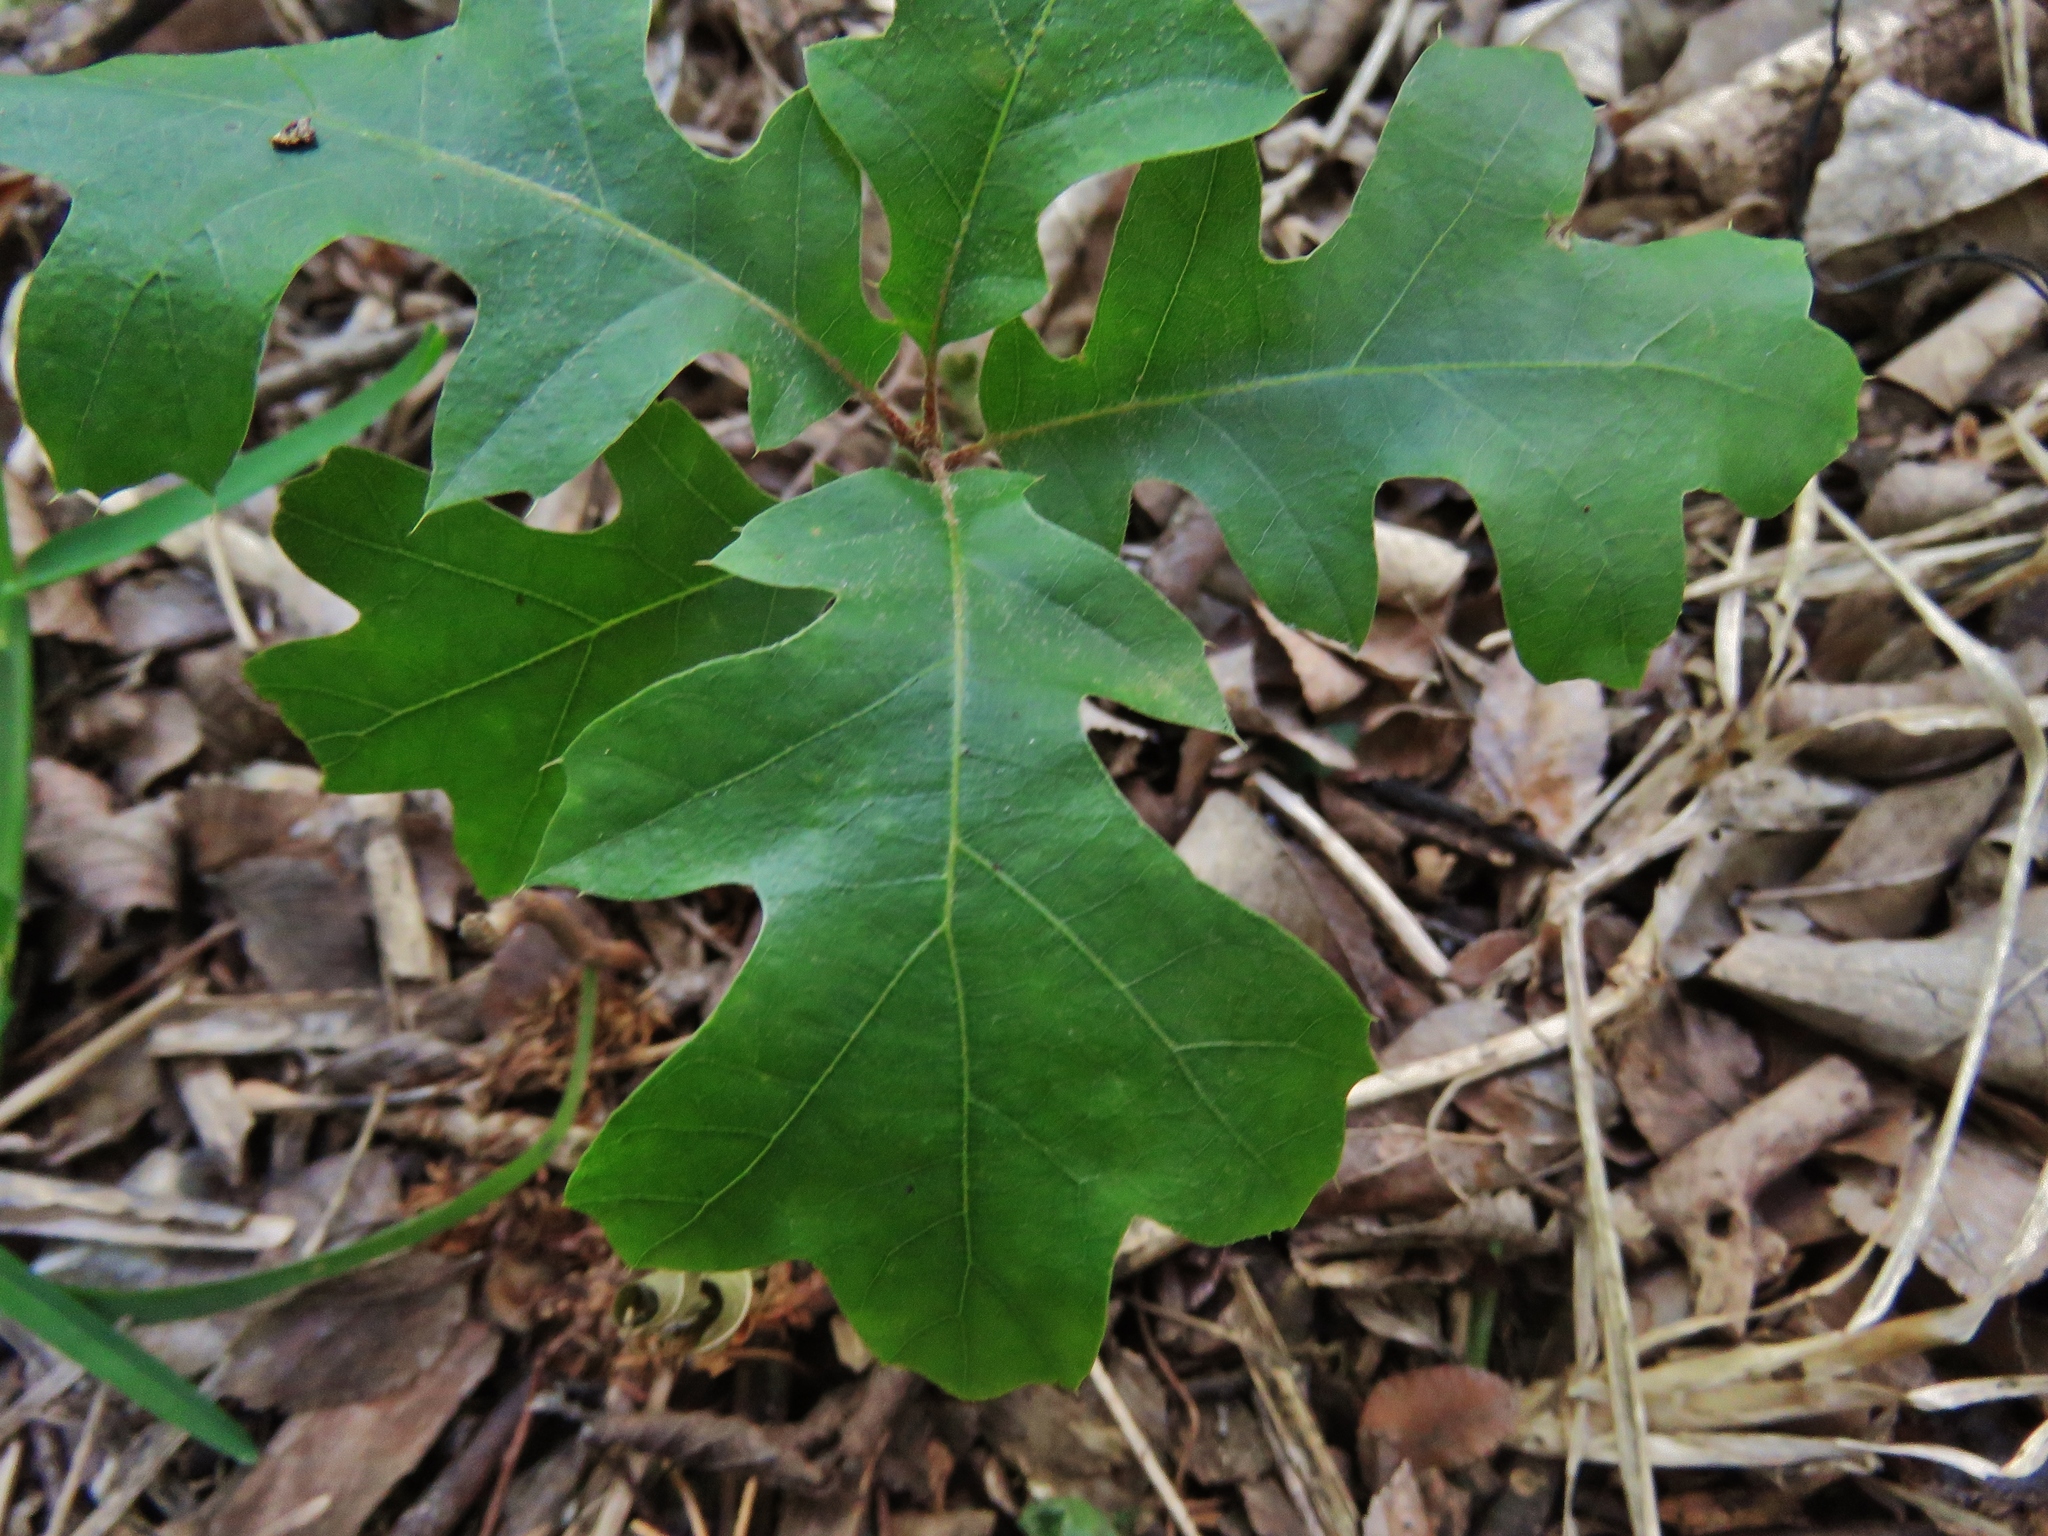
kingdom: Plantae
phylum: Tracheophyta
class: Magnoliopsida
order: Fagales
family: Fagaceae
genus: Quercus
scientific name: Quercus stellata
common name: Post oak
